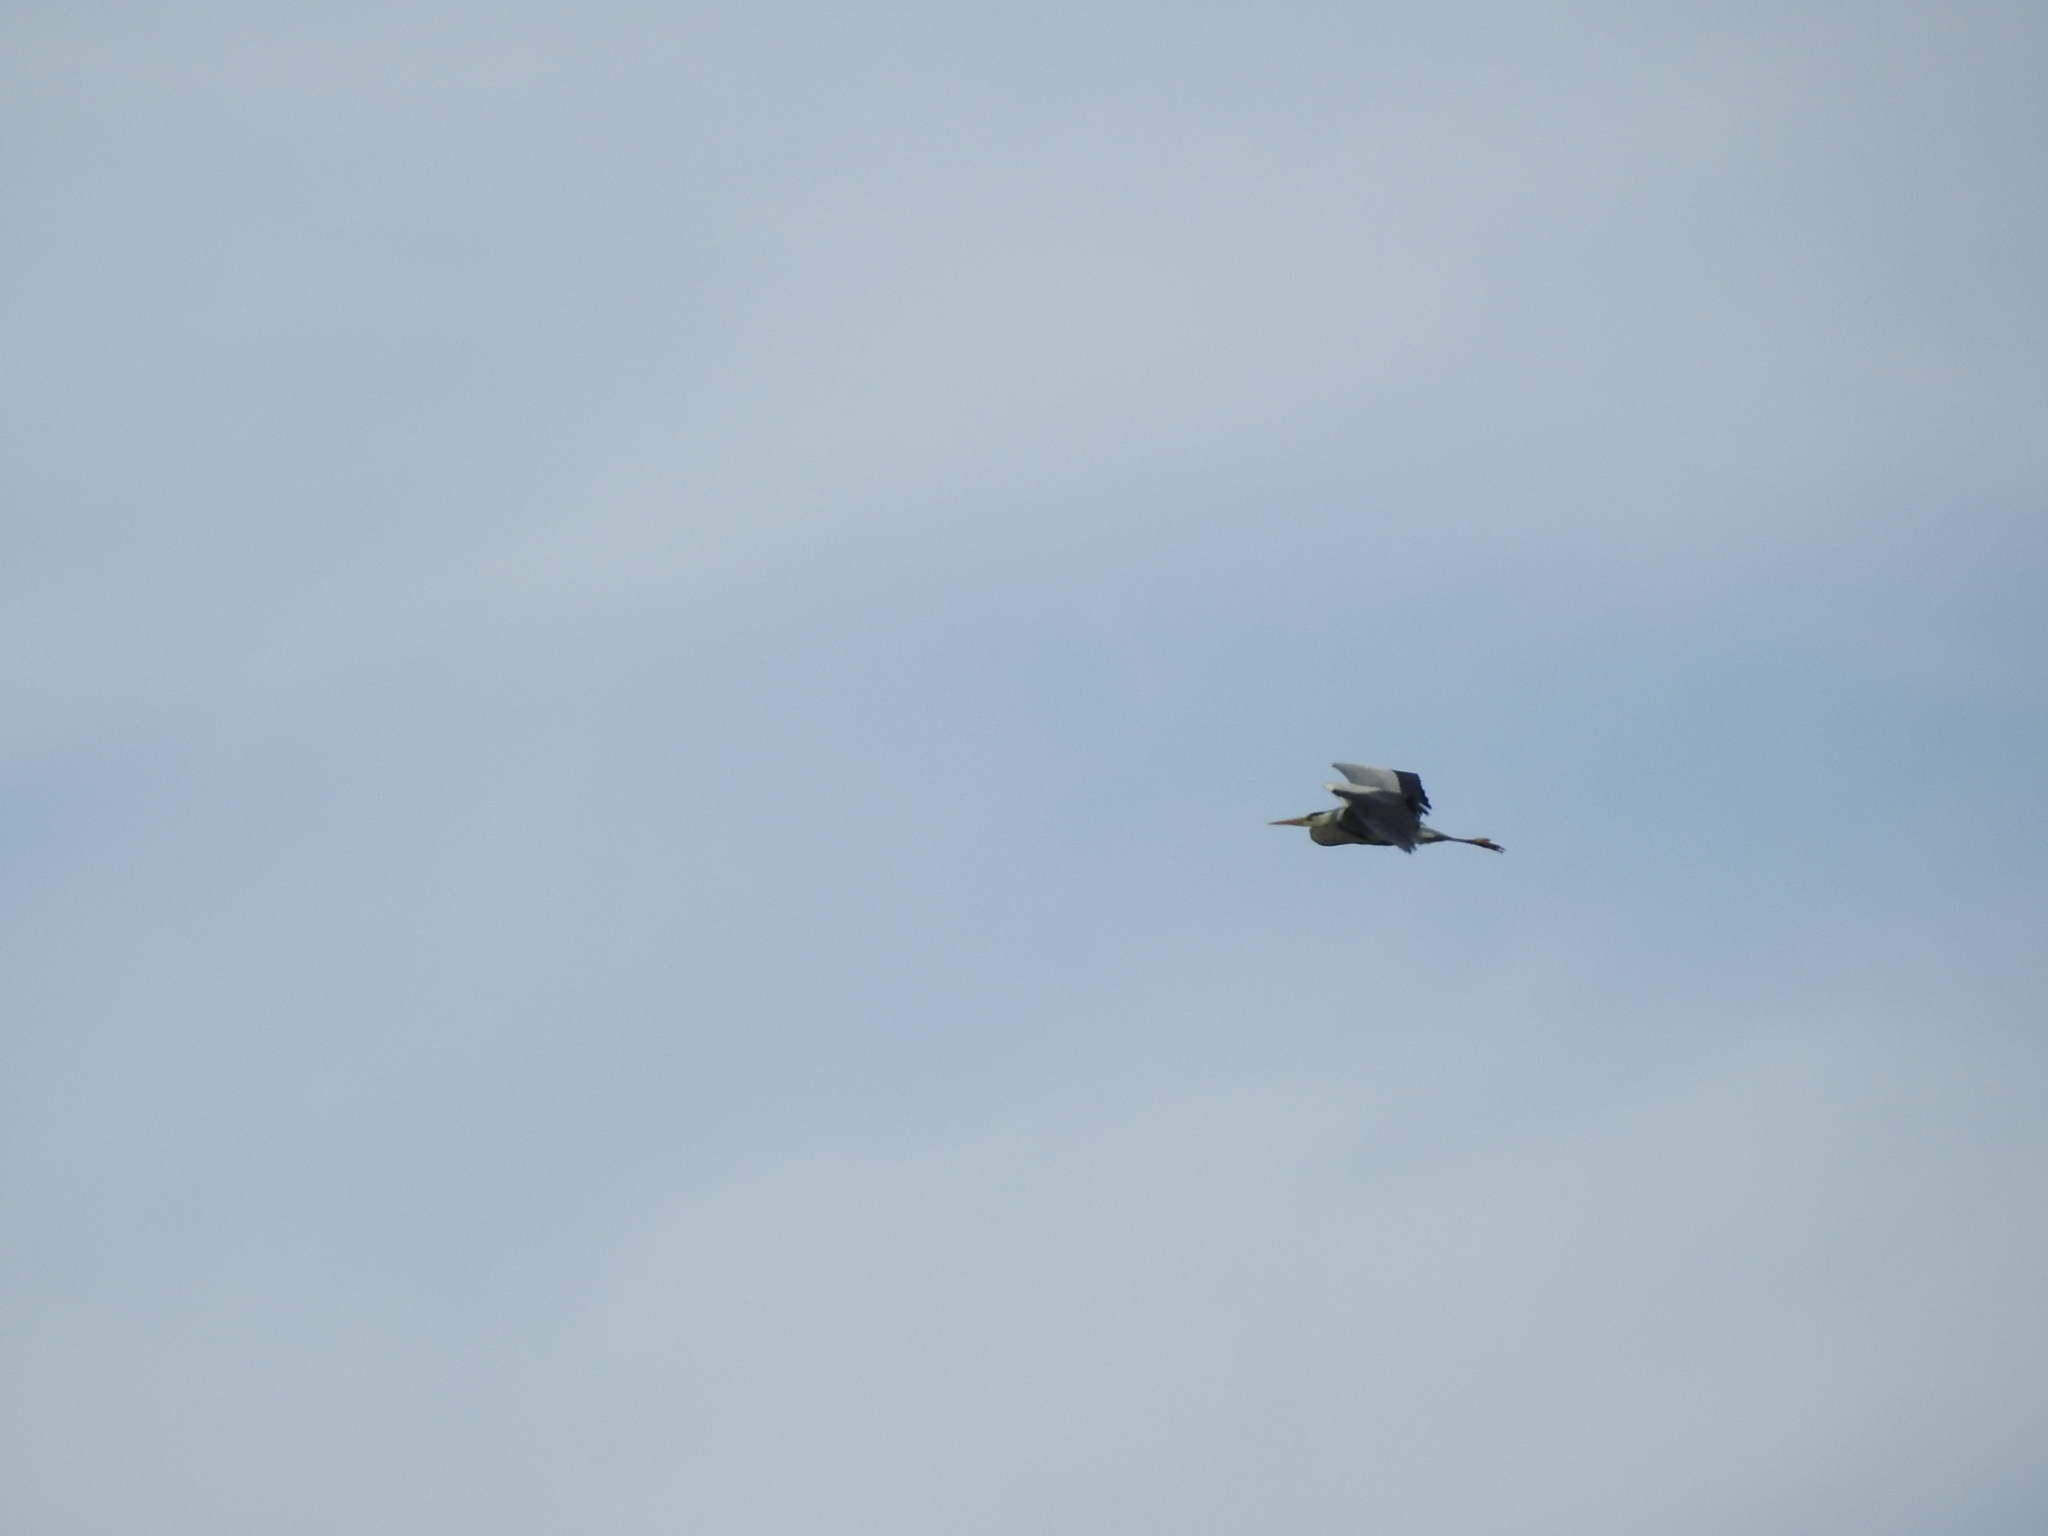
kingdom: Animalia
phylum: Chordata
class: Aves
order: Pelecaniformes
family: Ardeidae
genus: Ardea
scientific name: Ardea cinerea
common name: Grey heron
